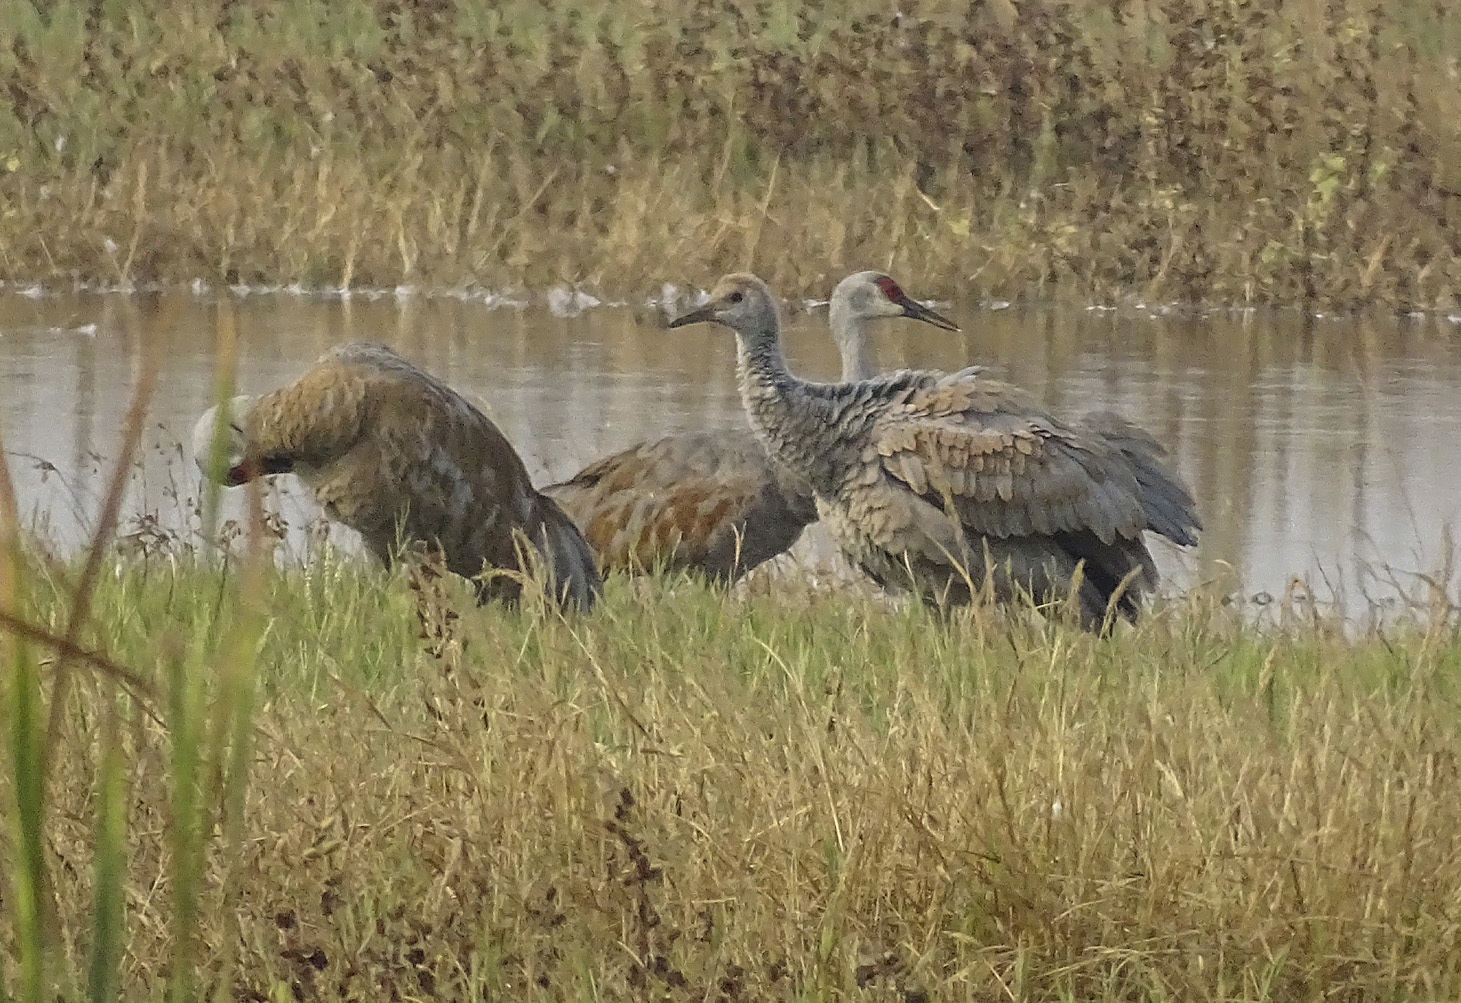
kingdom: Animalia
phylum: Chordata
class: Aves
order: Gruiformes
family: Gruidae
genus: Grus
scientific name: Grus canadensis
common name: Sandhill crane
